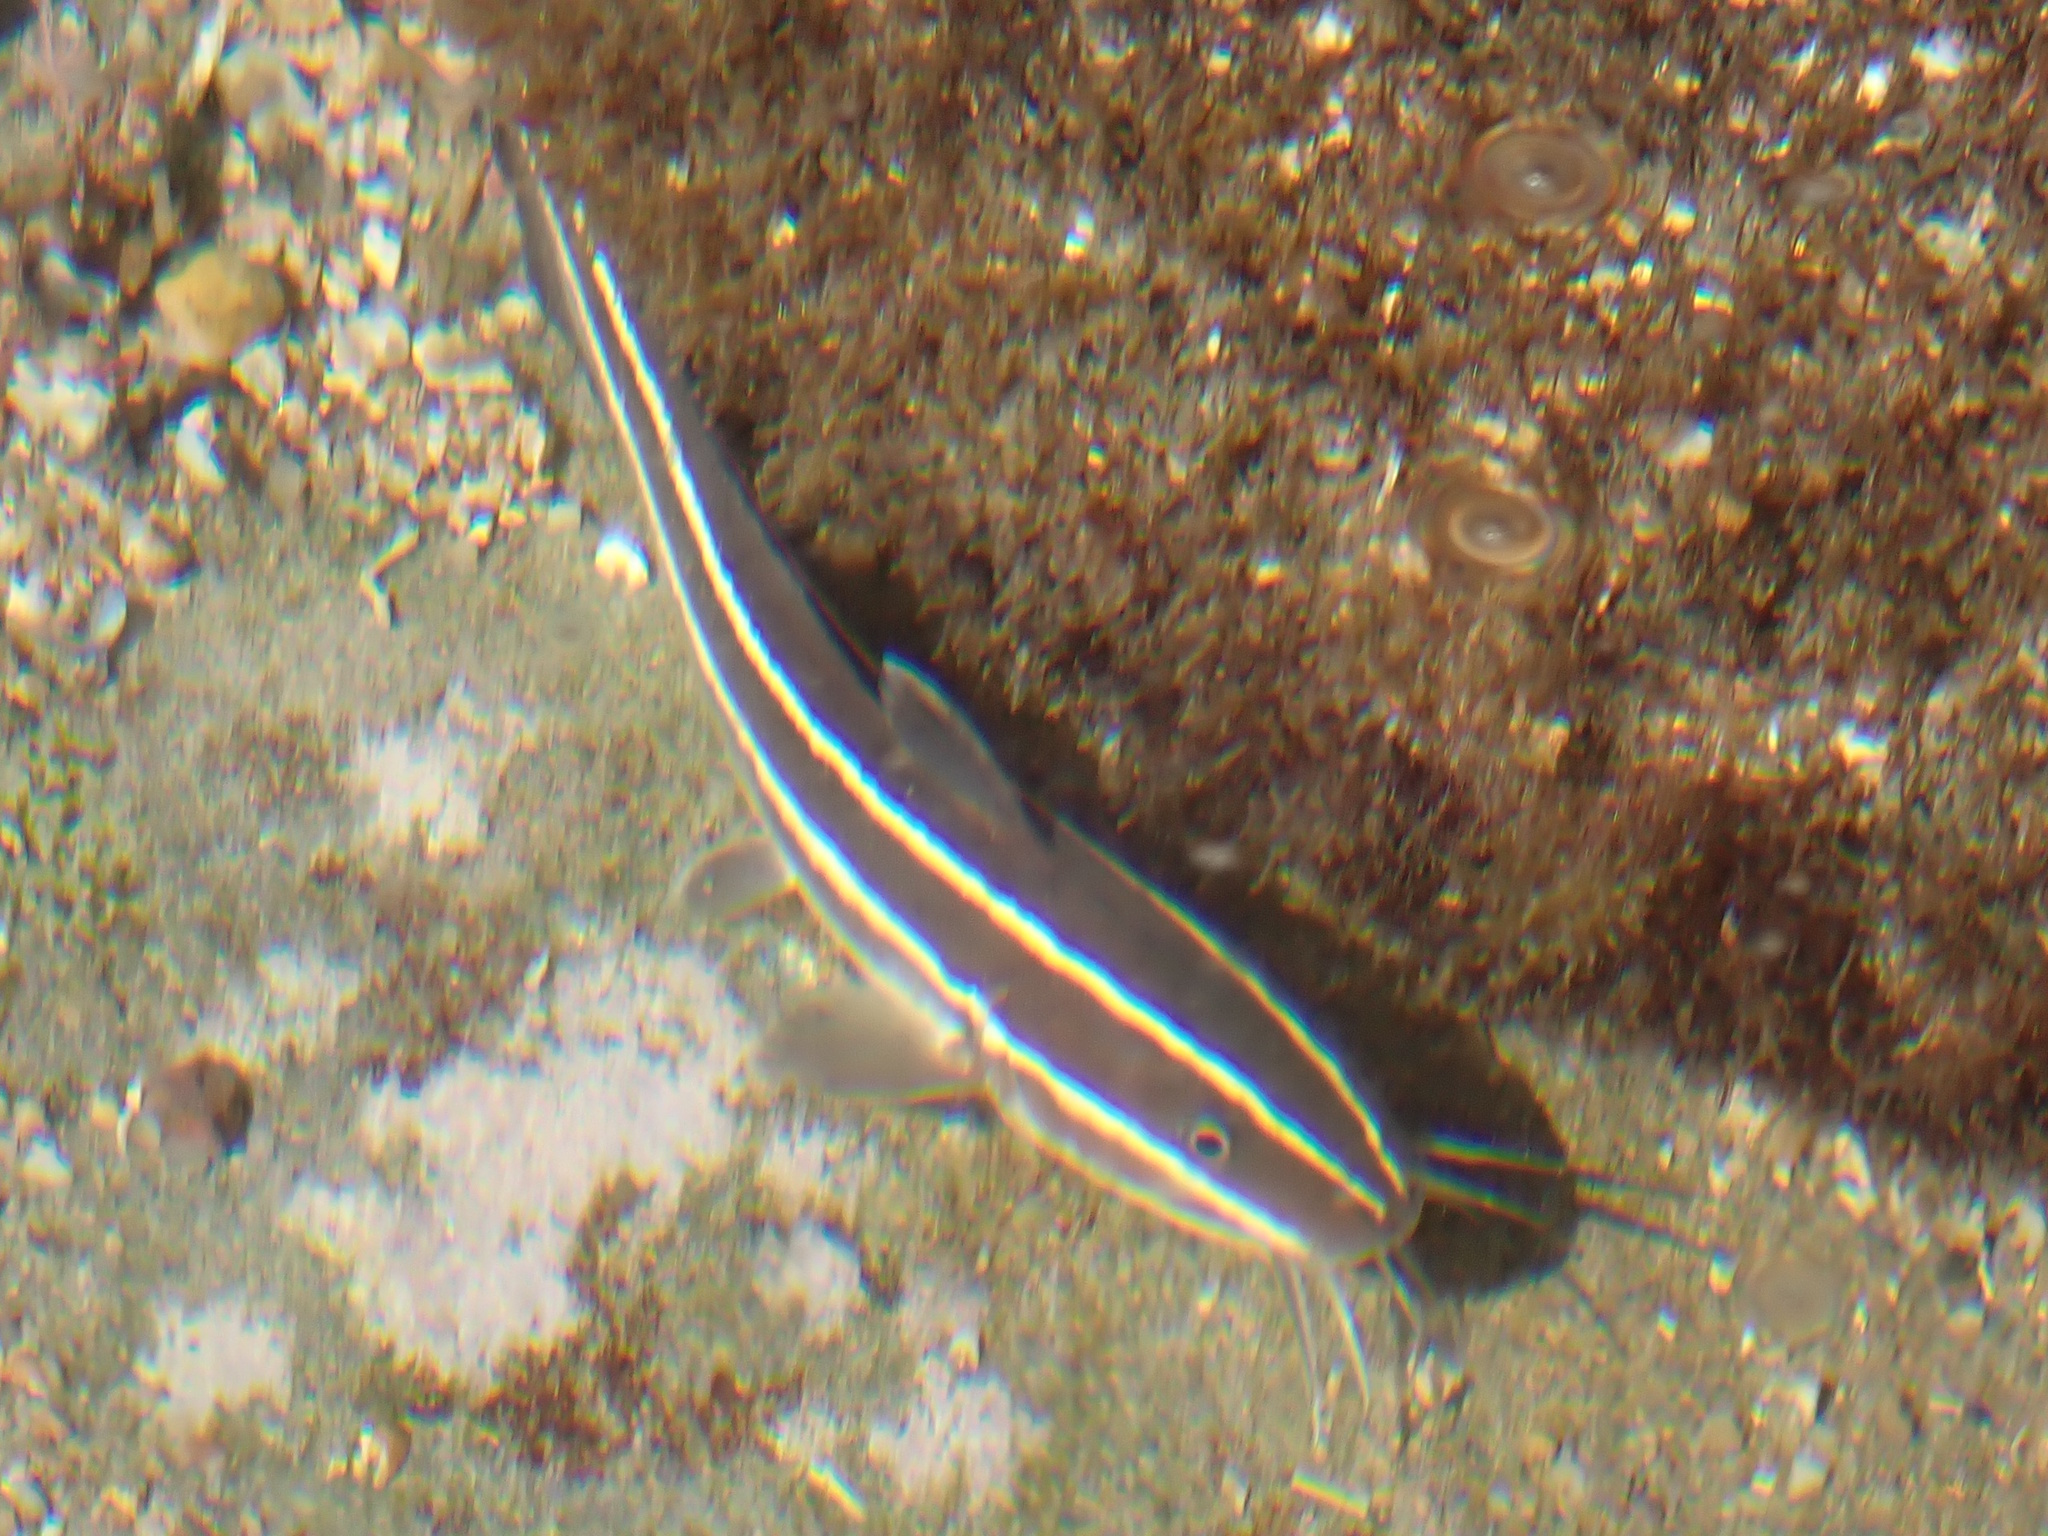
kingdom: Animalia
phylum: Chordata
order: Siluriformes
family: Plotosidae
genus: Plotosus
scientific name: Plotosus lineatus
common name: Striped eel catfish
